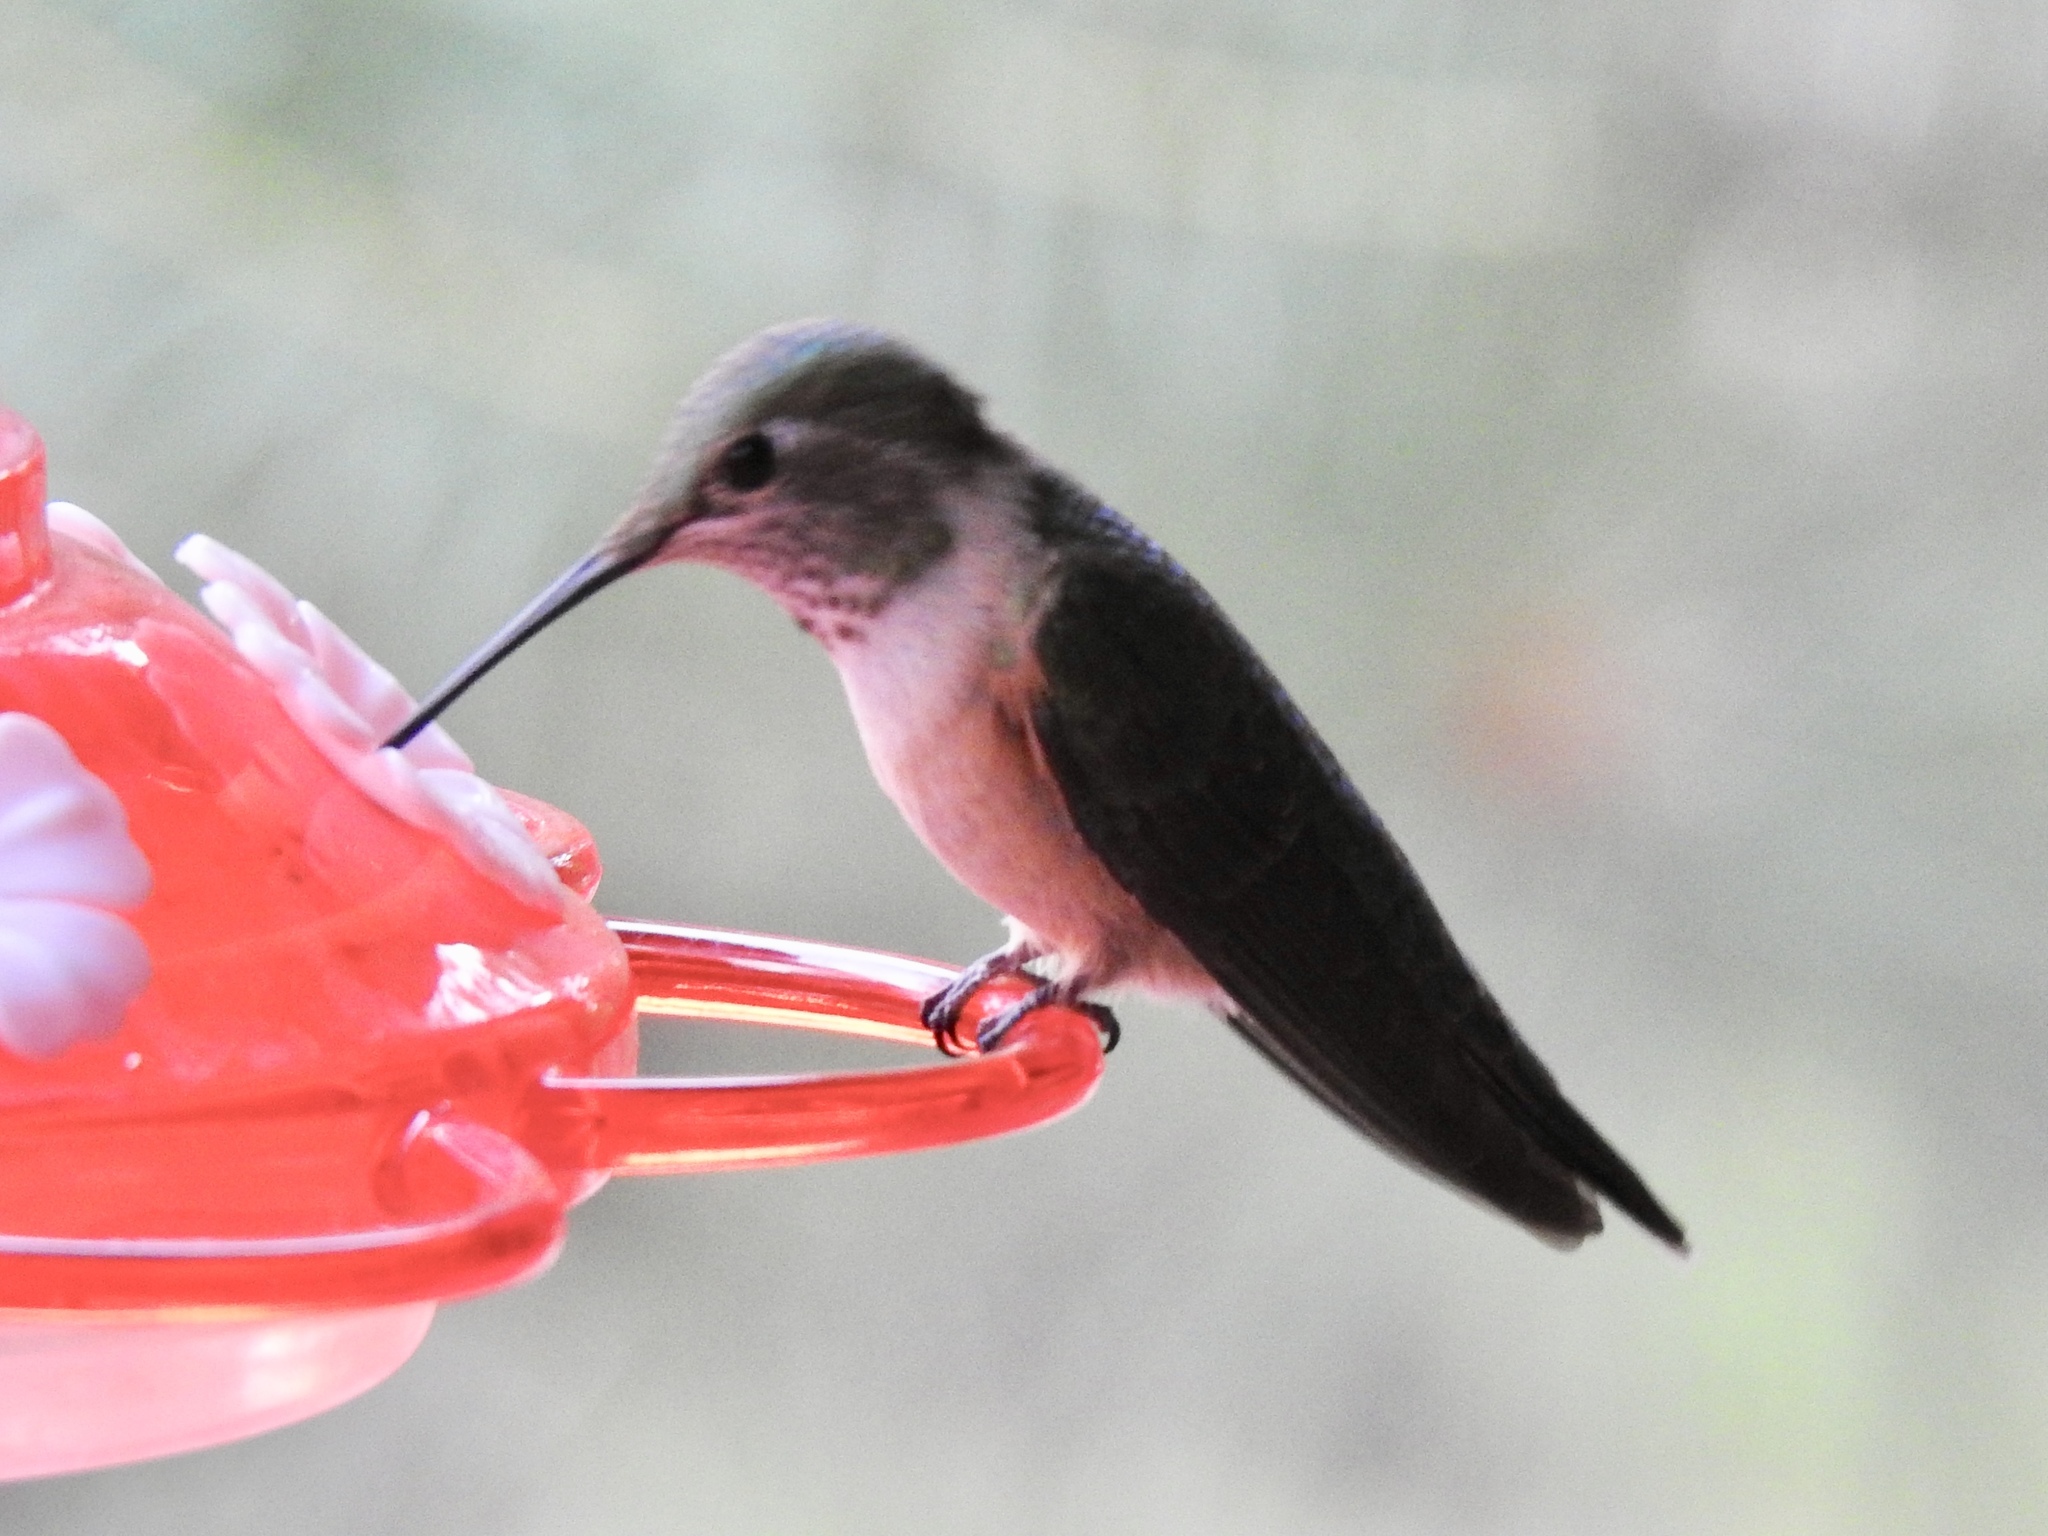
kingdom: Animalia
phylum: Chordata
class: Aves
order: Apodiformes
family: Trochilidae
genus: Selasphorus
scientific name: Selasphorus platycercus
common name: Broad-tailed hummingbird
